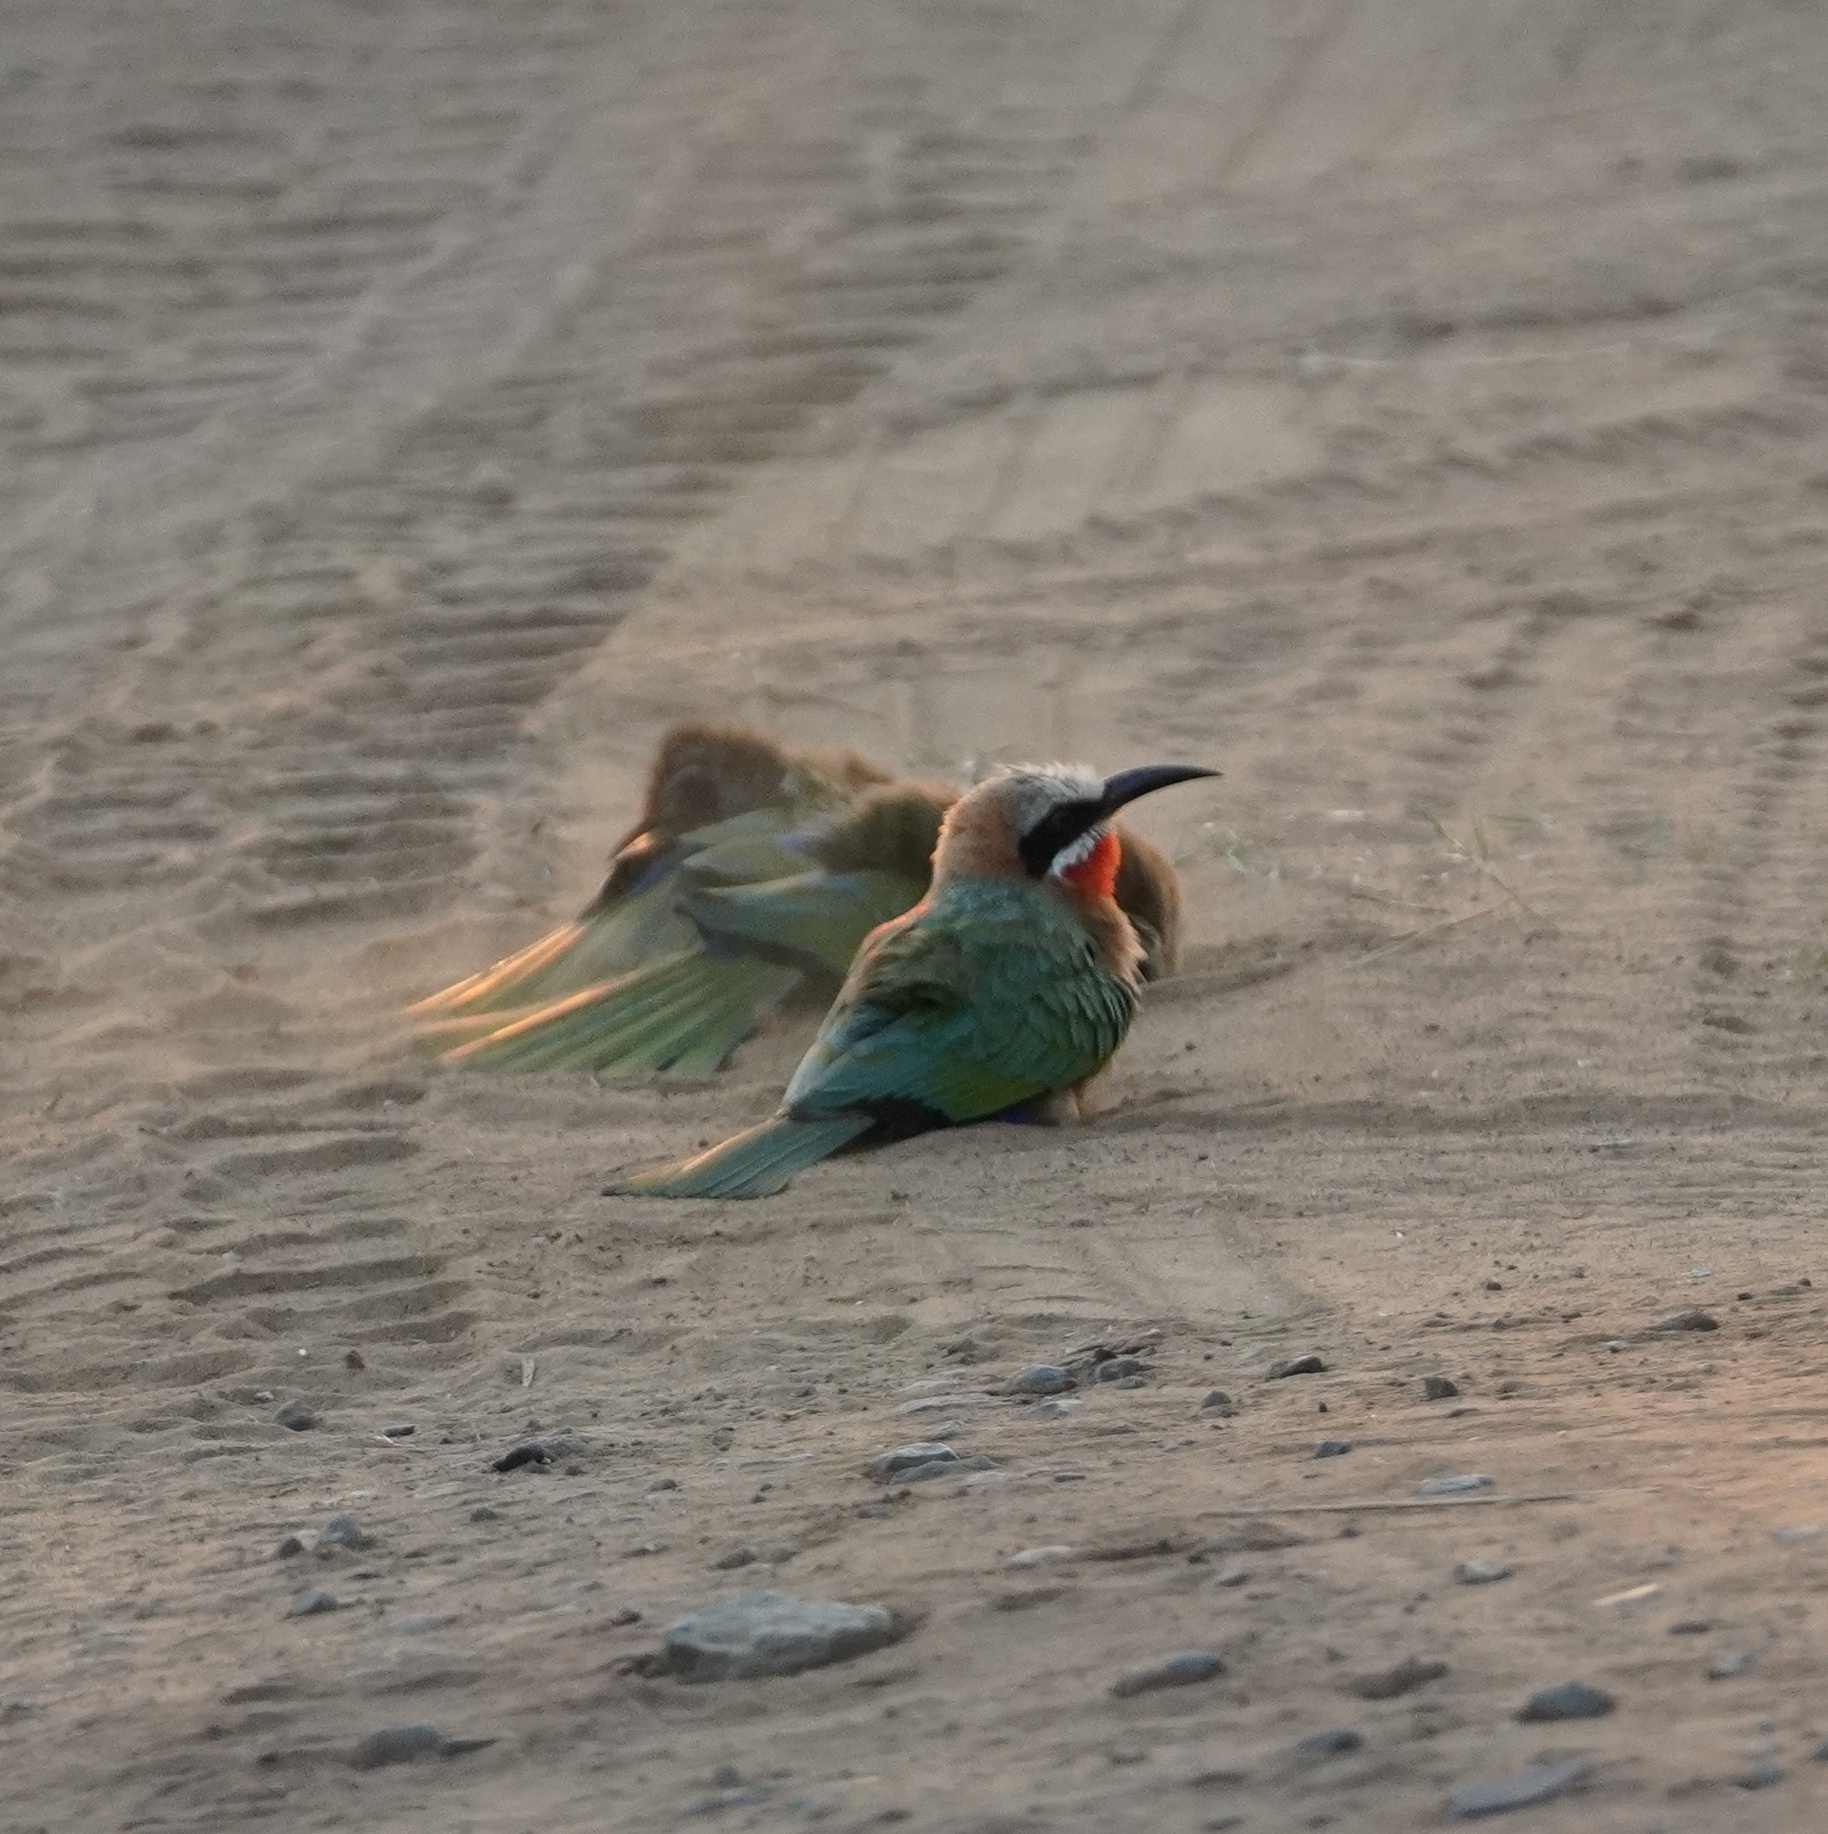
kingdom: Animalia
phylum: Chordata
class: Aves
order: Coraciiformes
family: Meropidae
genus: Merops
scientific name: Merops bullockoides
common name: White-fronted bee-eater
